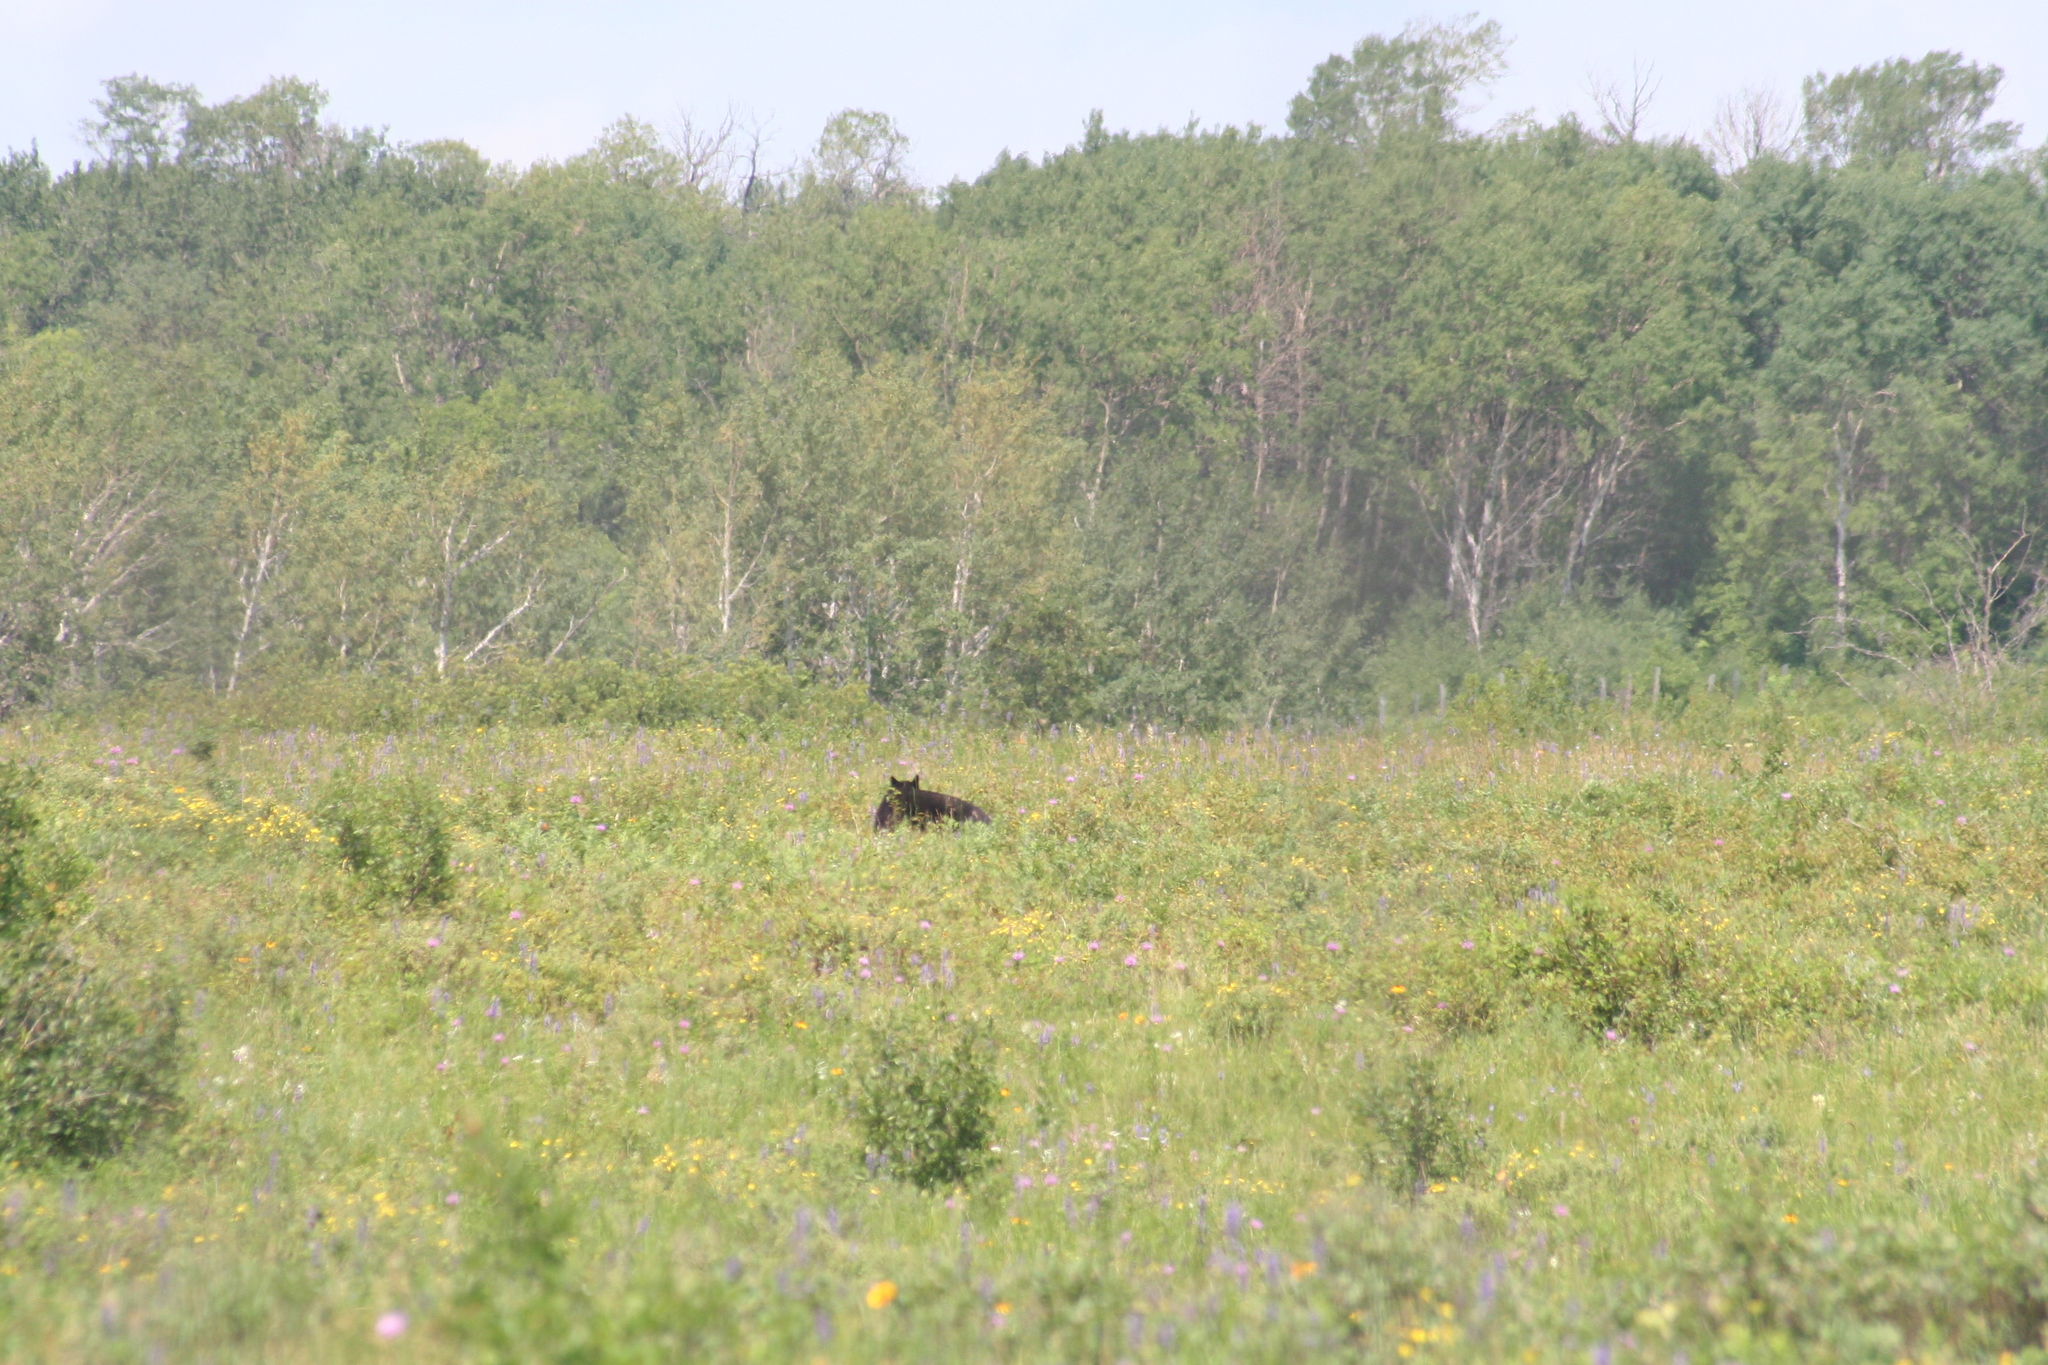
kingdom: Animalia
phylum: Chordata
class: Mammalia
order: Carnivora
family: Ursidae
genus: Ursus
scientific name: Ursus americanus
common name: American black bear
